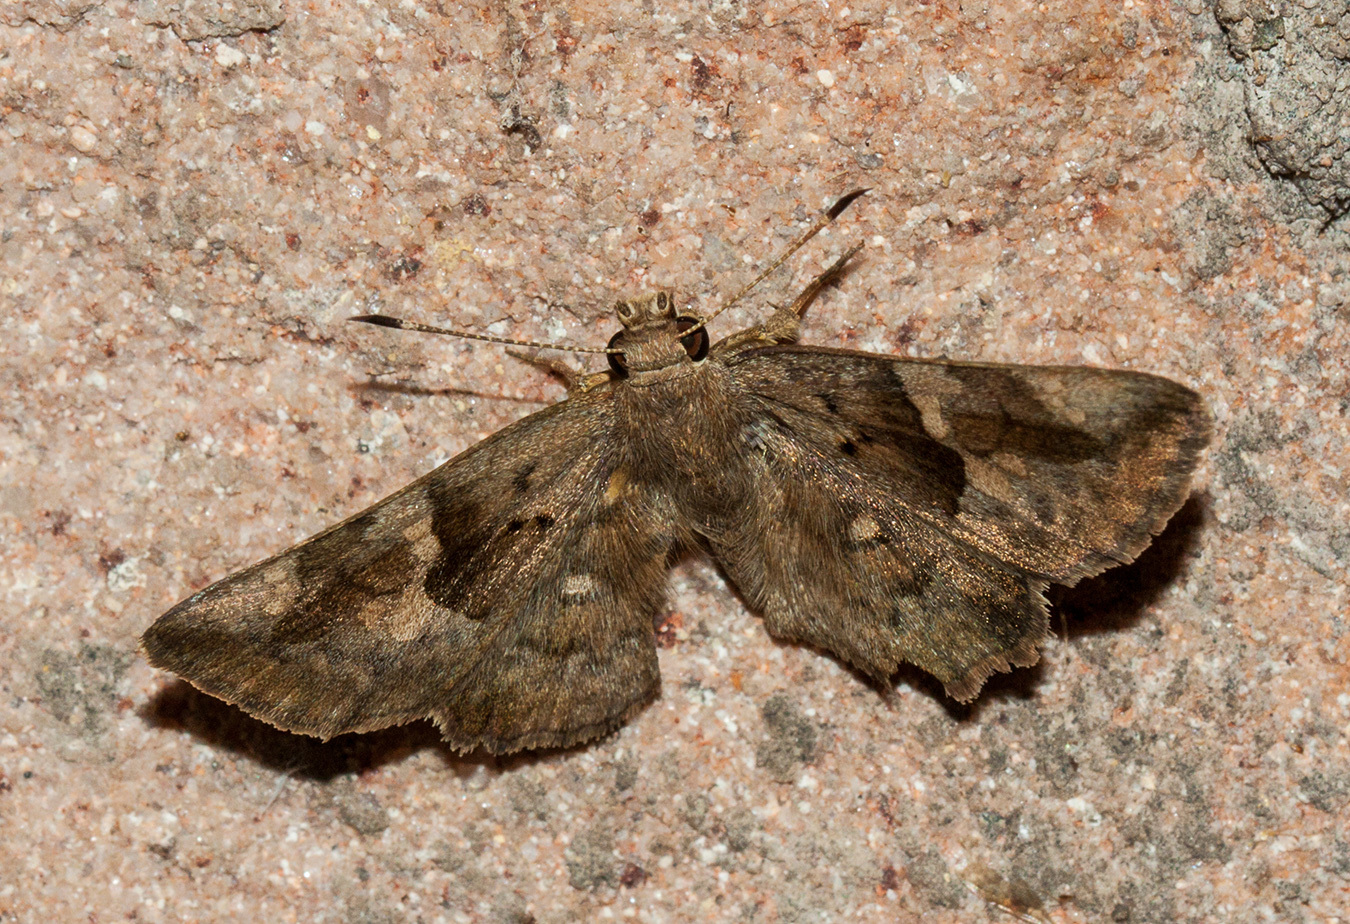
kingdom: Animalia
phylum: Arthropoda
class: Insecta
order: Lepidoptera
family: Hesperiidae
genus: Sarangesa
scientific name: Sarangesa motozi
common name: Forest elfin
